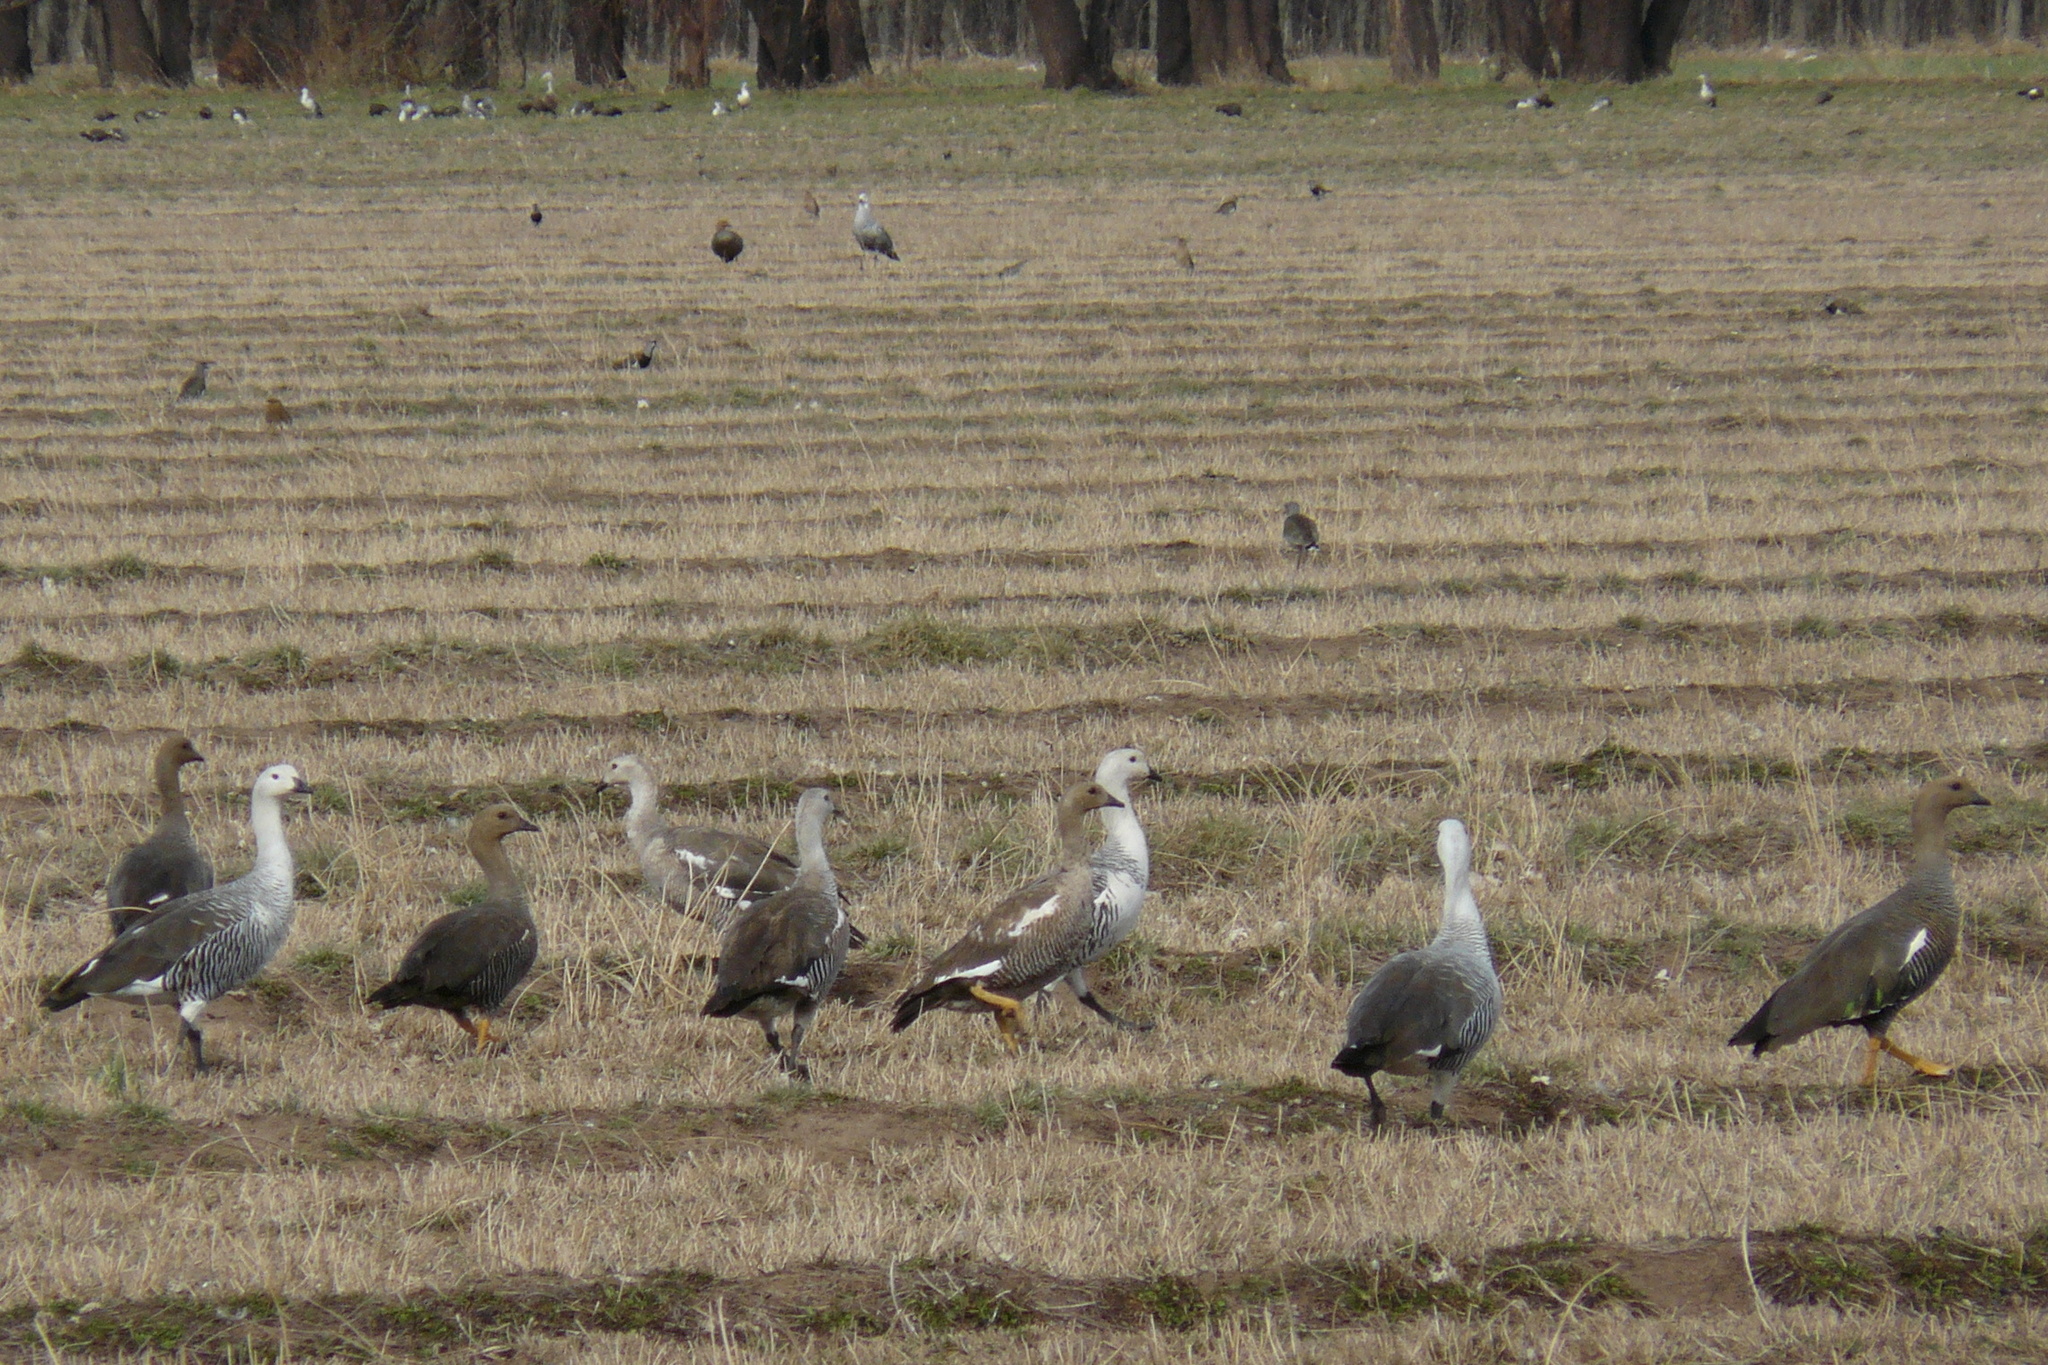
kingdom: Animalia
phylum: Chordata
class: Aves
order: Anseriformes
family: Anatidae
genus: Chloephaga
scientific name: Chloephaga picta
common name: Upland goose
